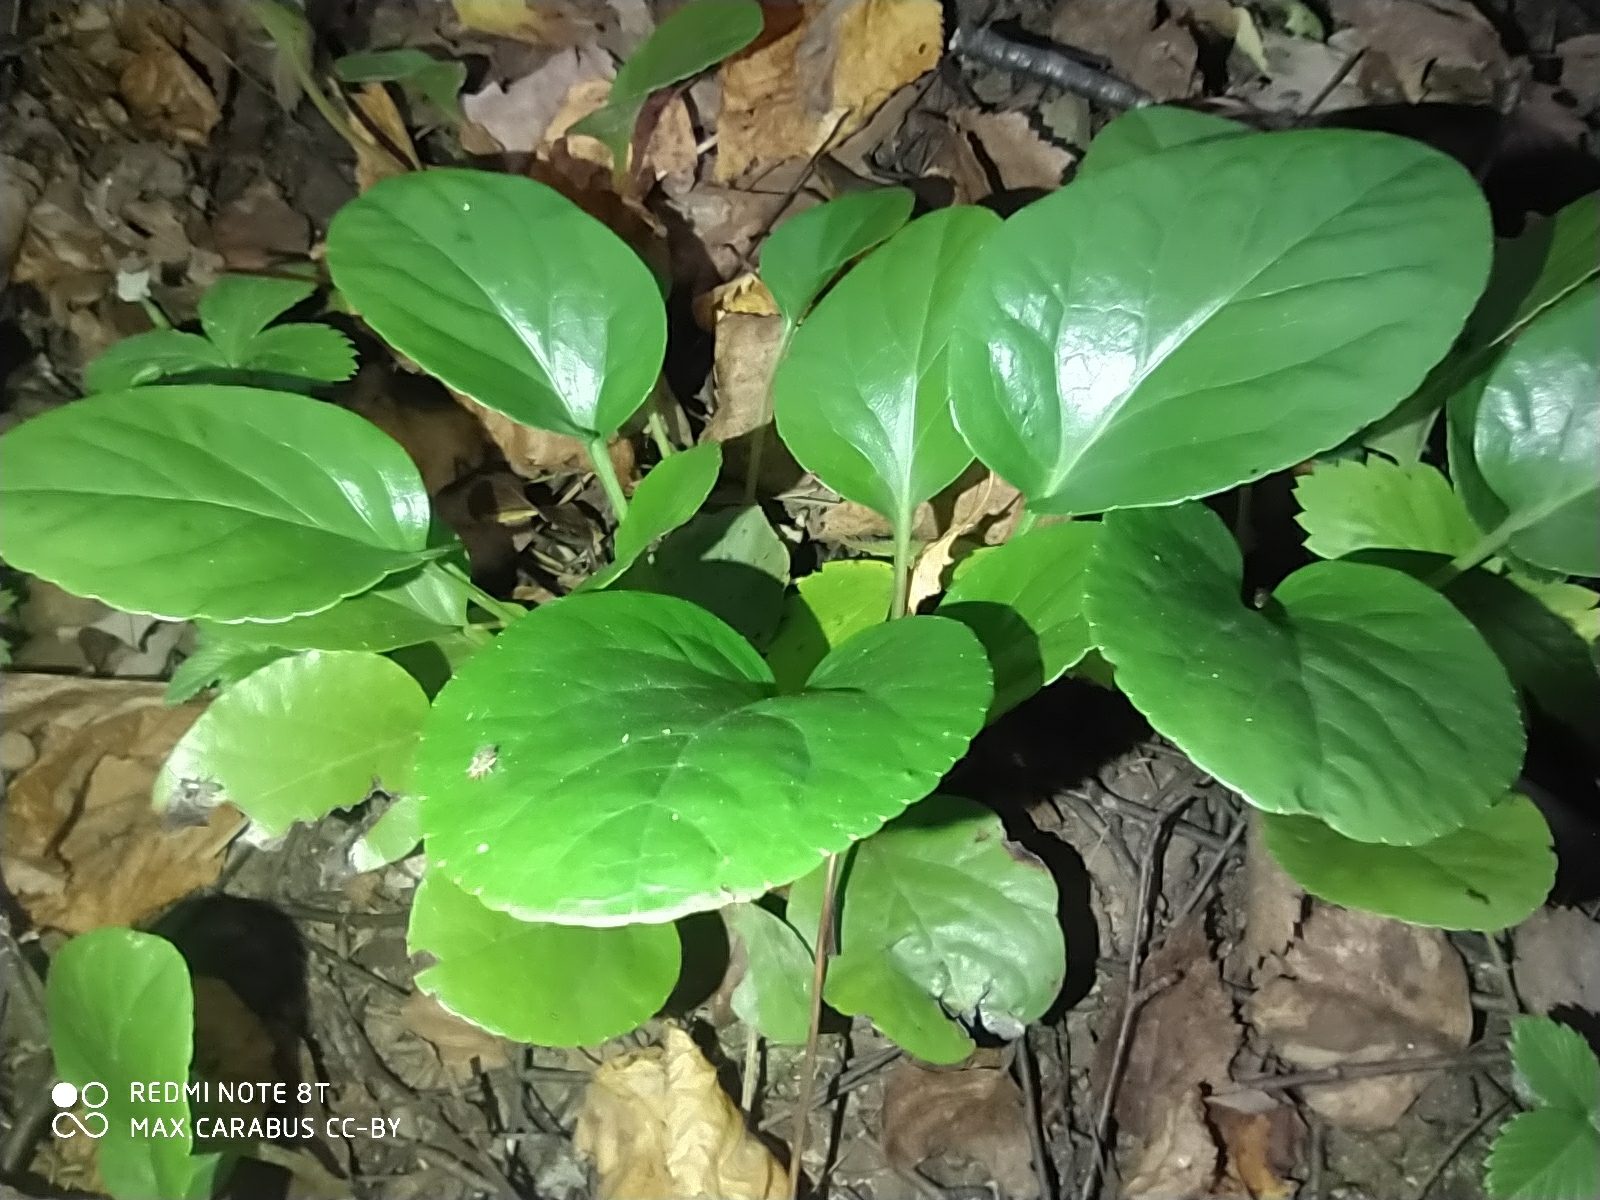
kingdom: Plantae
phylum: Tracheophyta
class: Magnoliopsida
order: Ericales
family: Ericaceae
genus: Pyrola
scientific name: Pyrola
